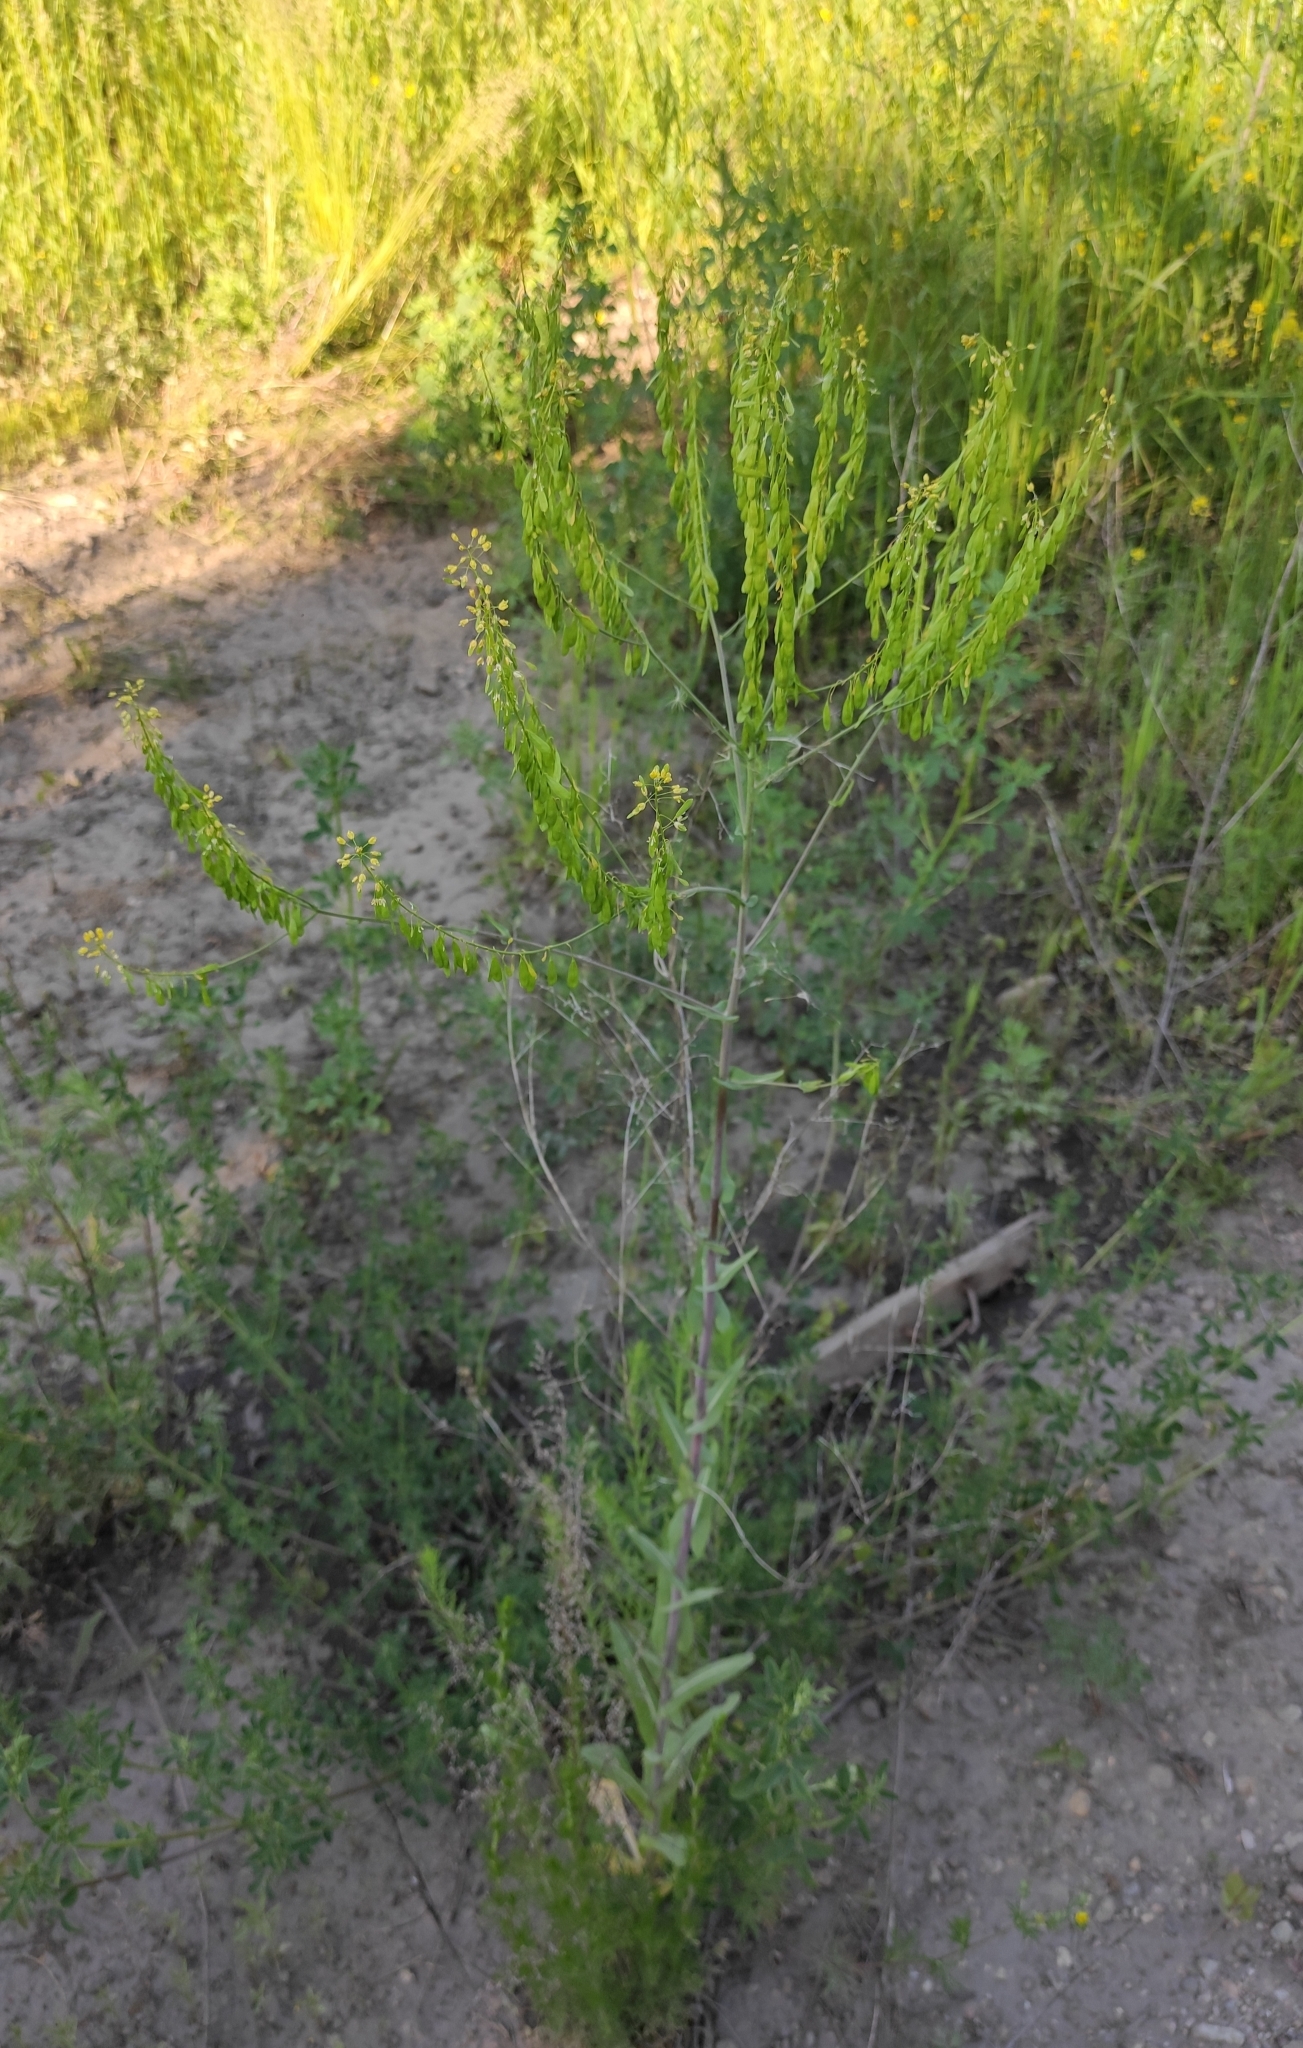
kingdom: Plantae
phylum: Tracheophyta
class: Magnoliopsida
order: Brassicales
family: Brassicaceae
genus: Isatis
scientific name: Isatis tinctoria
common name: Woad
